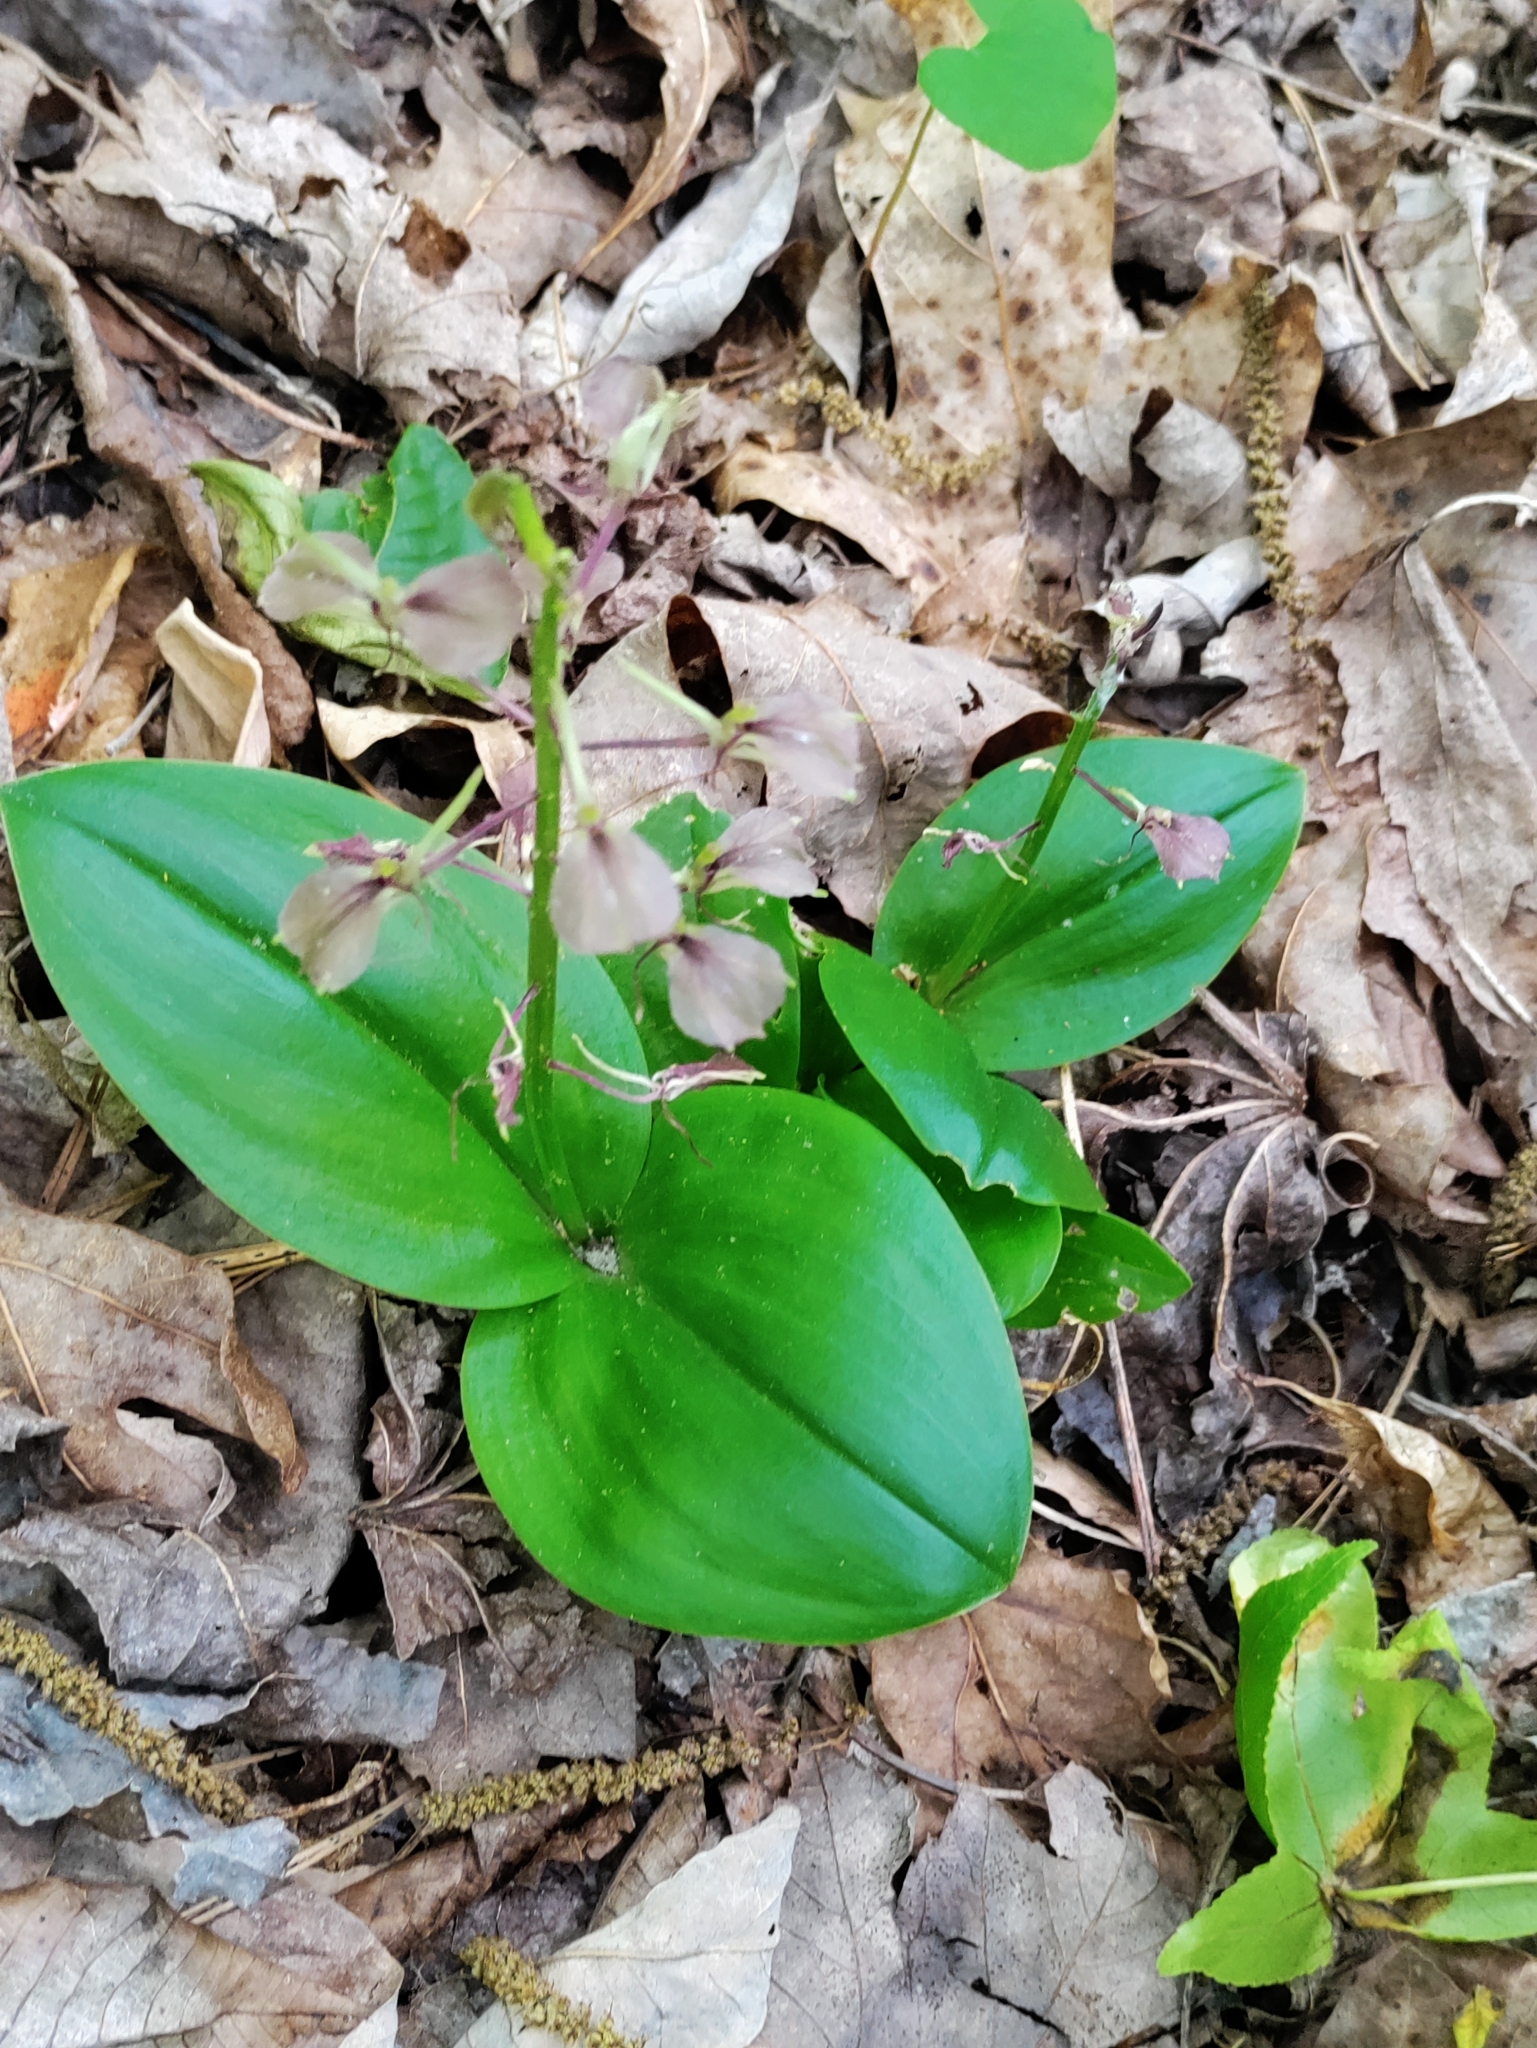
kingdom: Plantae
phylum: Tracheophyta
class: Liliopsida
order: Asparagales
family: Orchidaceae
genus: Liparis
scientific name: Liparis liliifolia
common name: Brown wide-lip orchid
